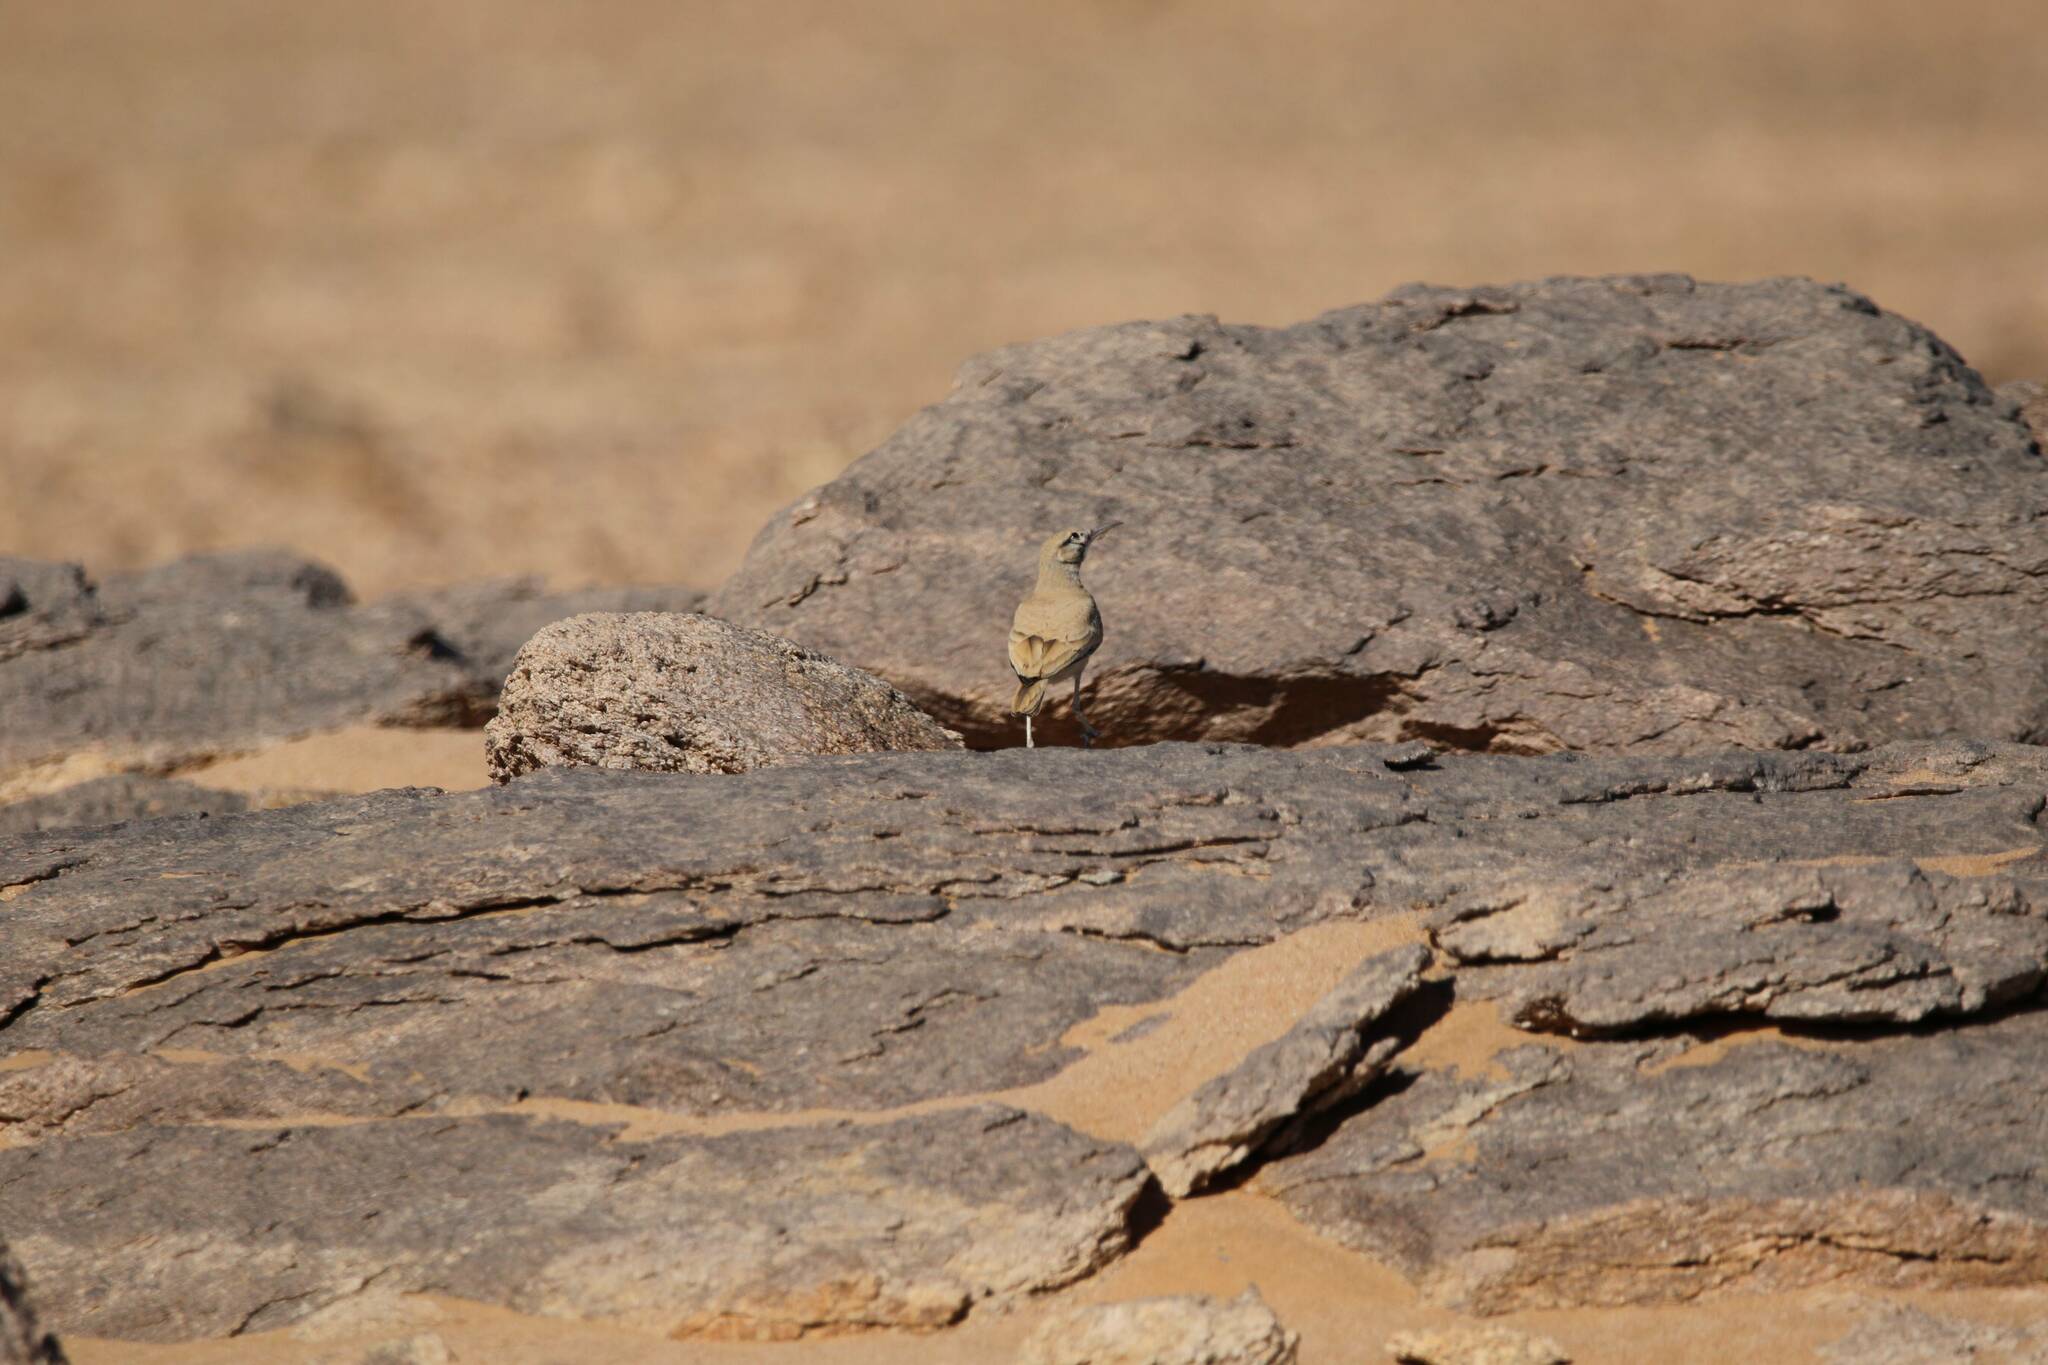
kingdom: Animalia
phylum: Chordata
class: Aves
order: Passeriformes
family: Alaudidae
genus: Alaemon
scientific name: Alaemon alaudipes
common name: Greater hoopoe-lark
